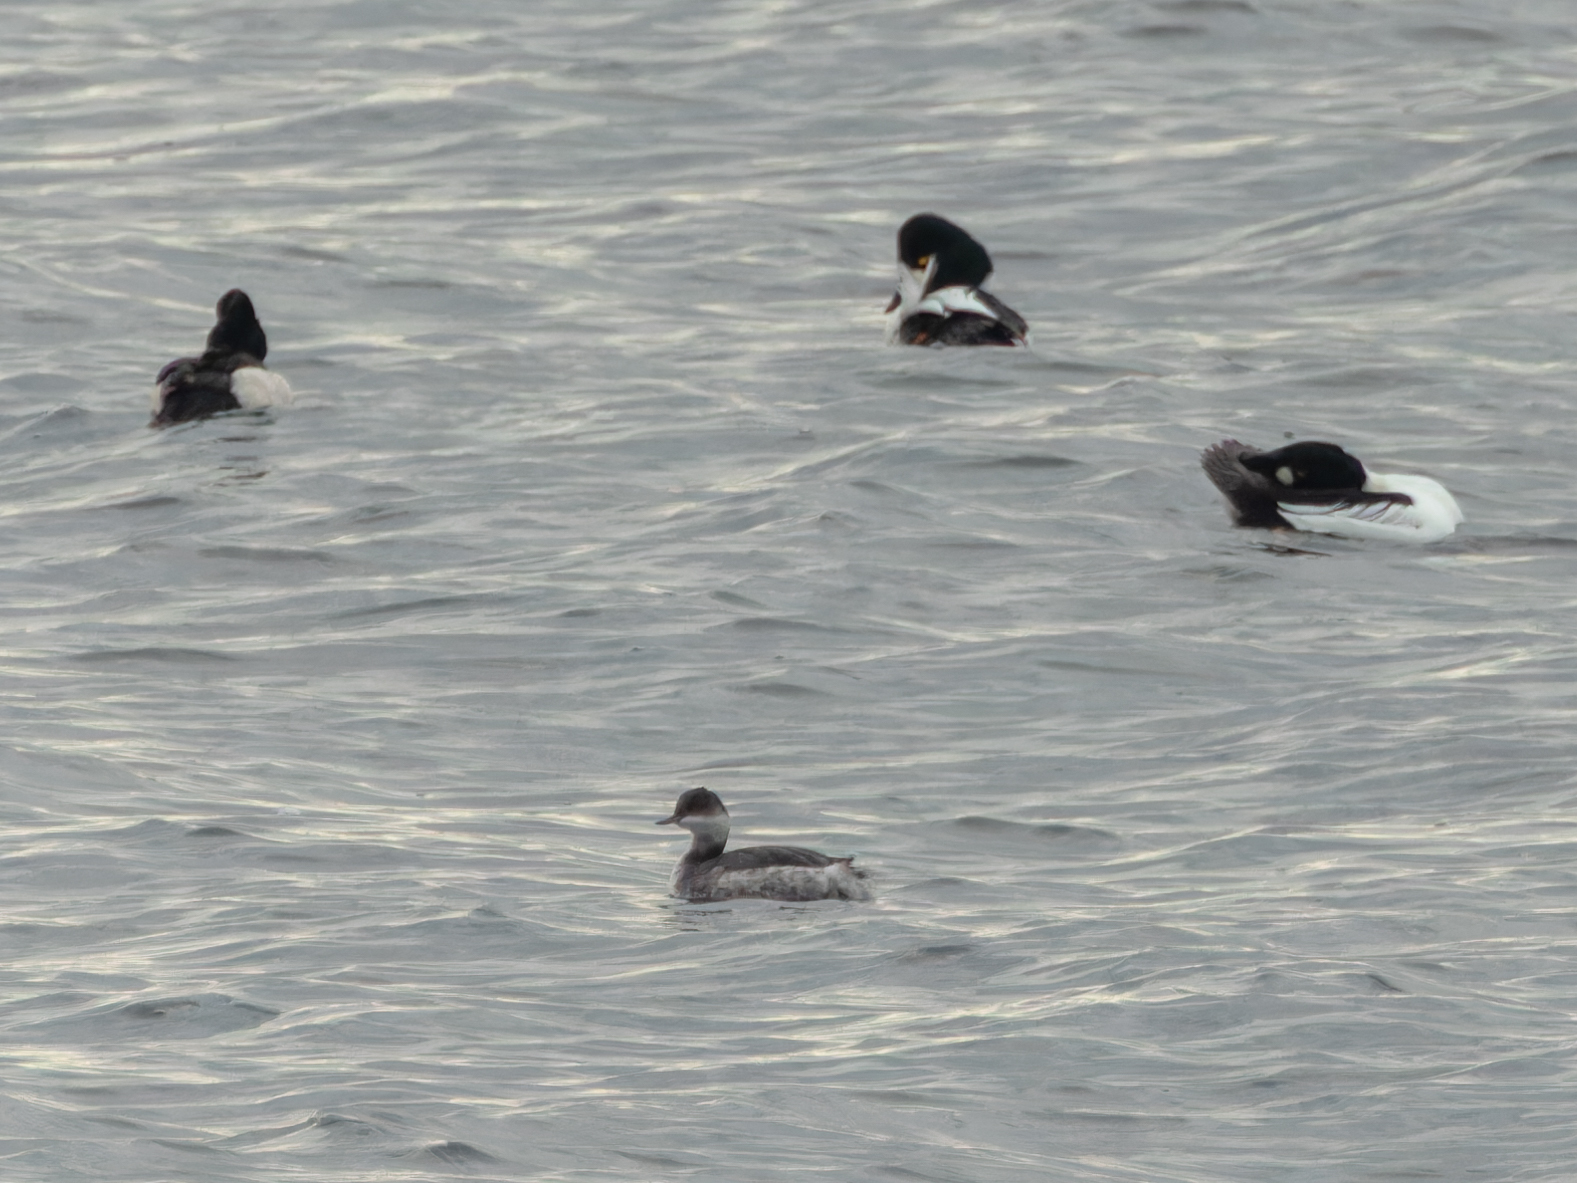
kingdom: Animalia
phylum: Chordata
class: Aves
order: Podicipediformes
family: Podicipedidae
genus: Podiceps
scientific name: Podiceps nigricollis
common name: Black-necked grebe
